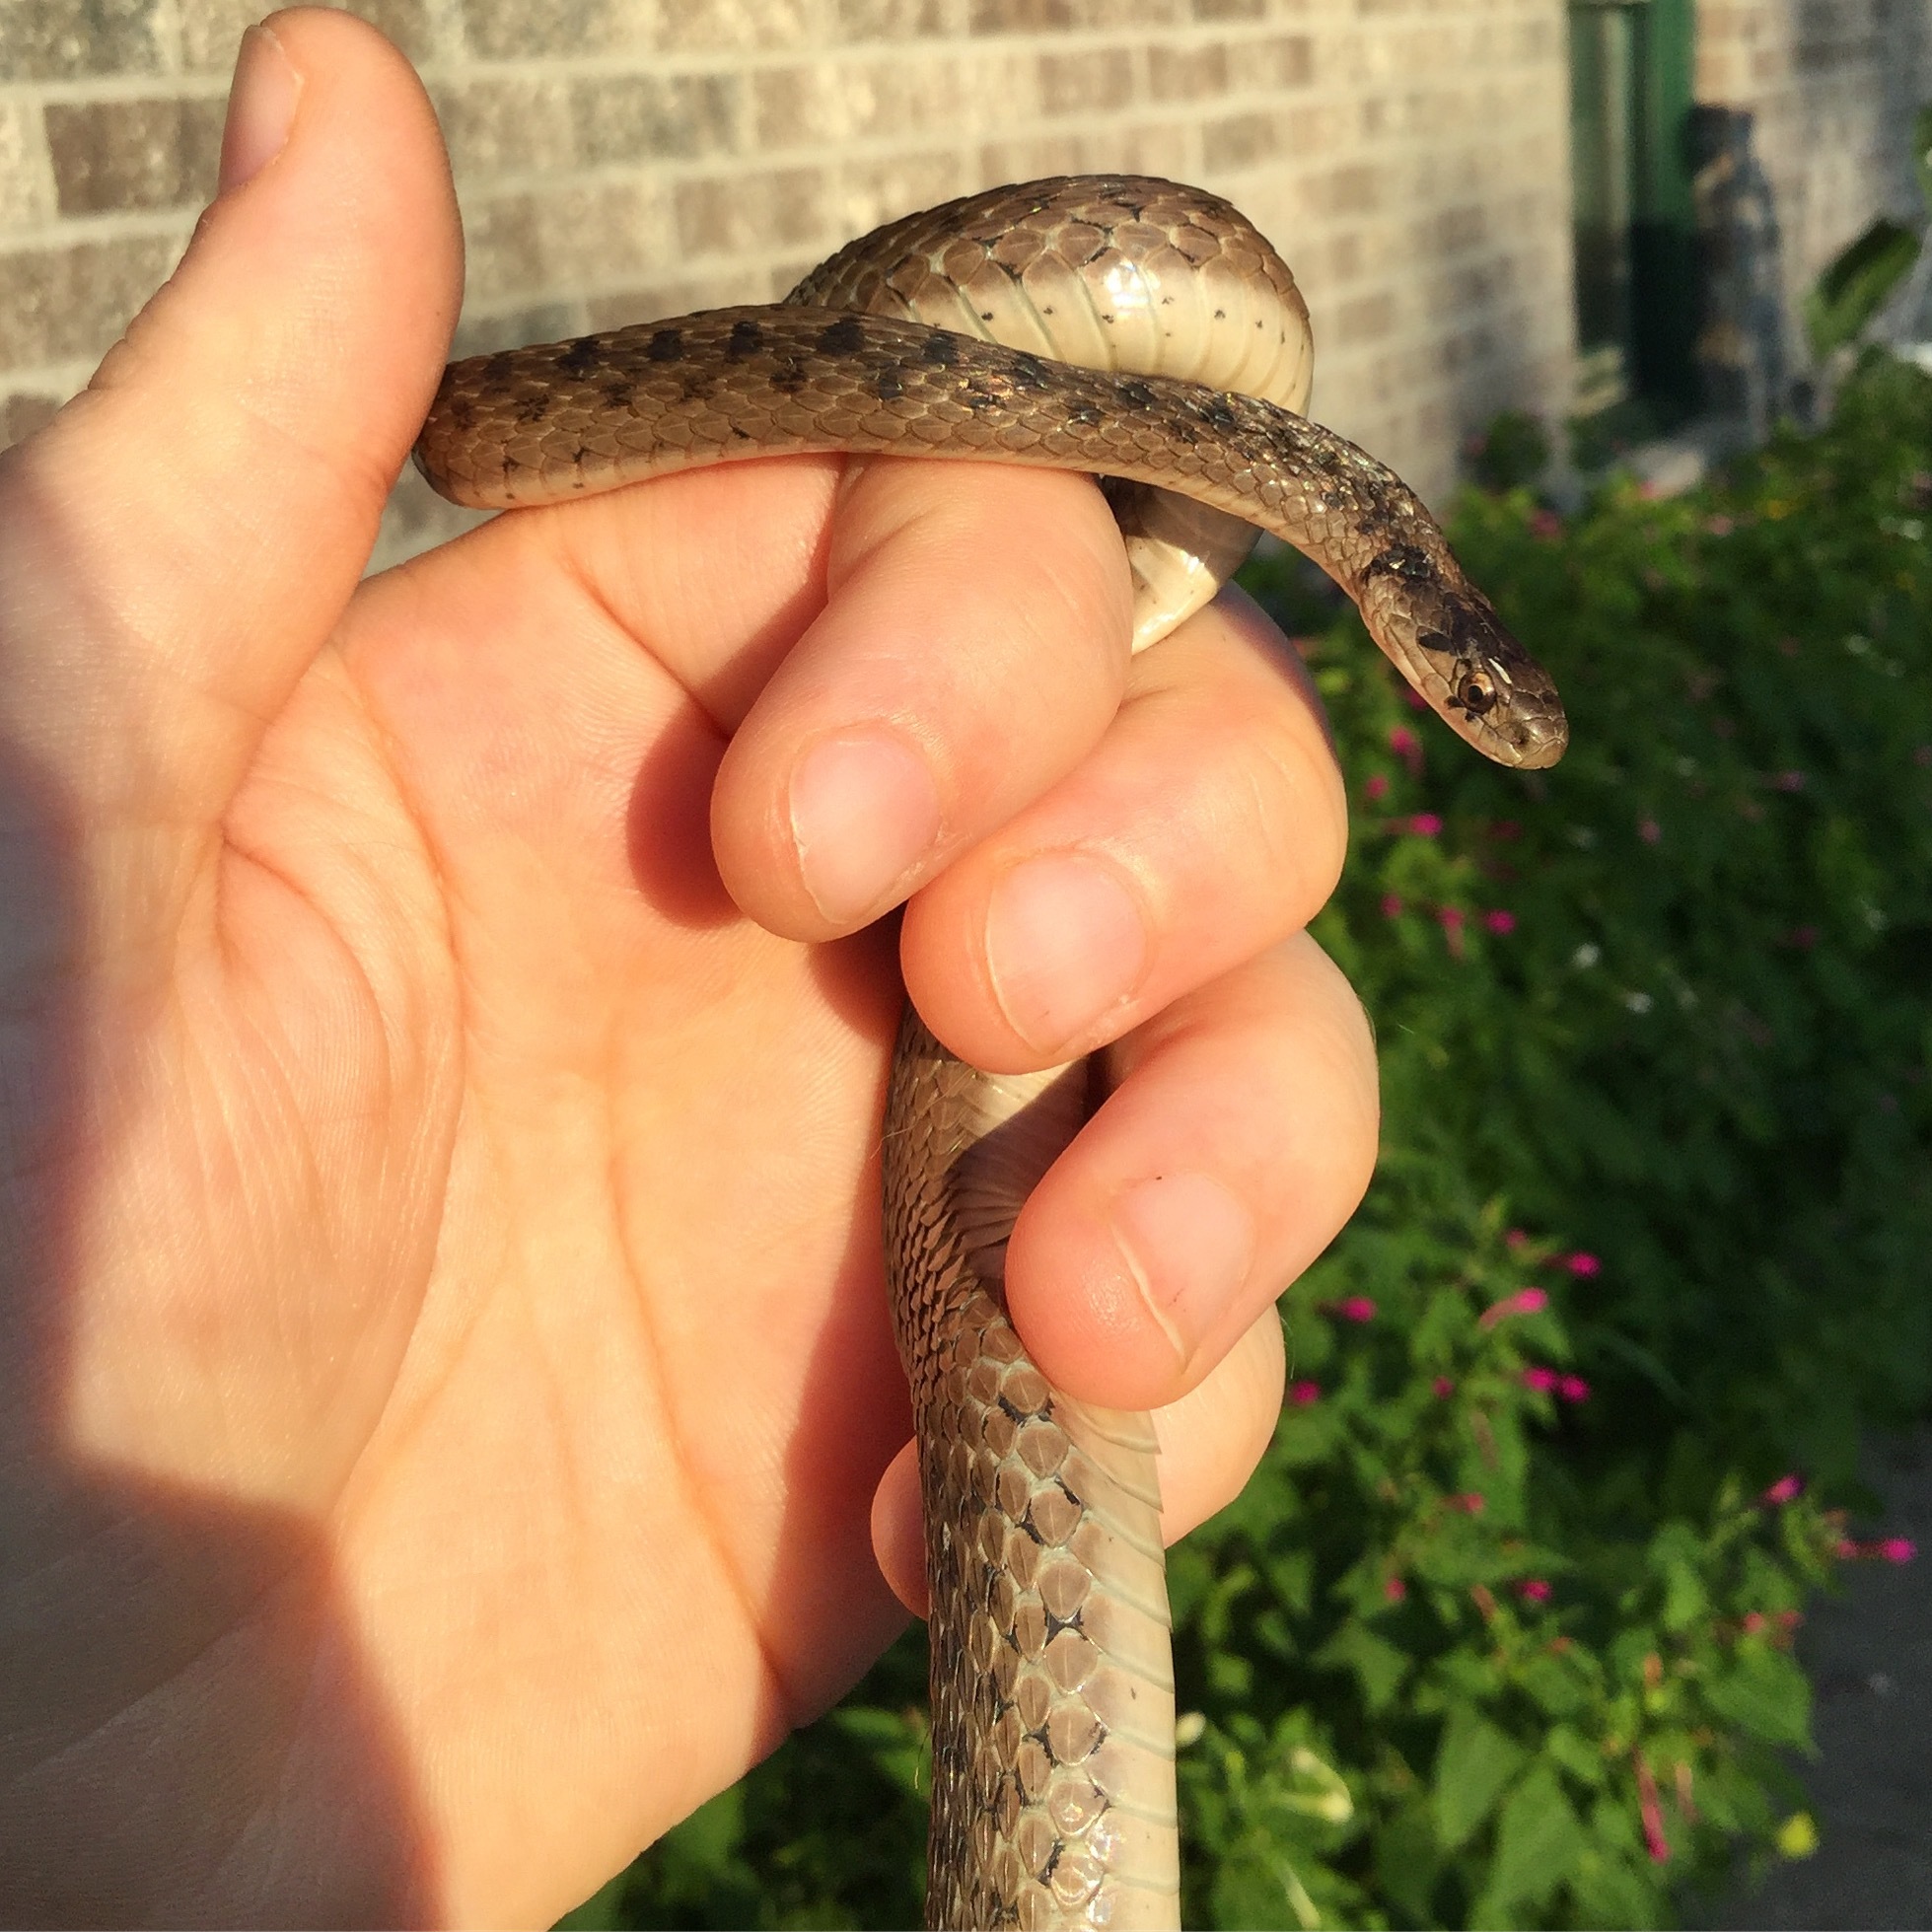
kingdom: Animalia
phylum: Chordata
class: Squamata
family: Colubridae
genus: Storeria
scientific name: Storeria dekayi
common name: (dekay’s) brown snake
